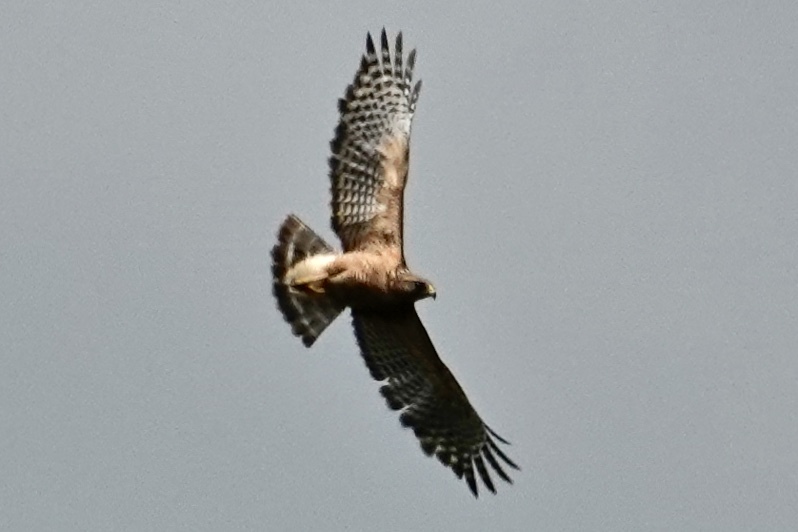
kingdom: Animalia
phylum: Chordata
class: Aves
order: Accipitriformes
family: Accipitridae
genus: Buteo
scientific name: Buteo lineatus
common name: Red-shouldered hawk
